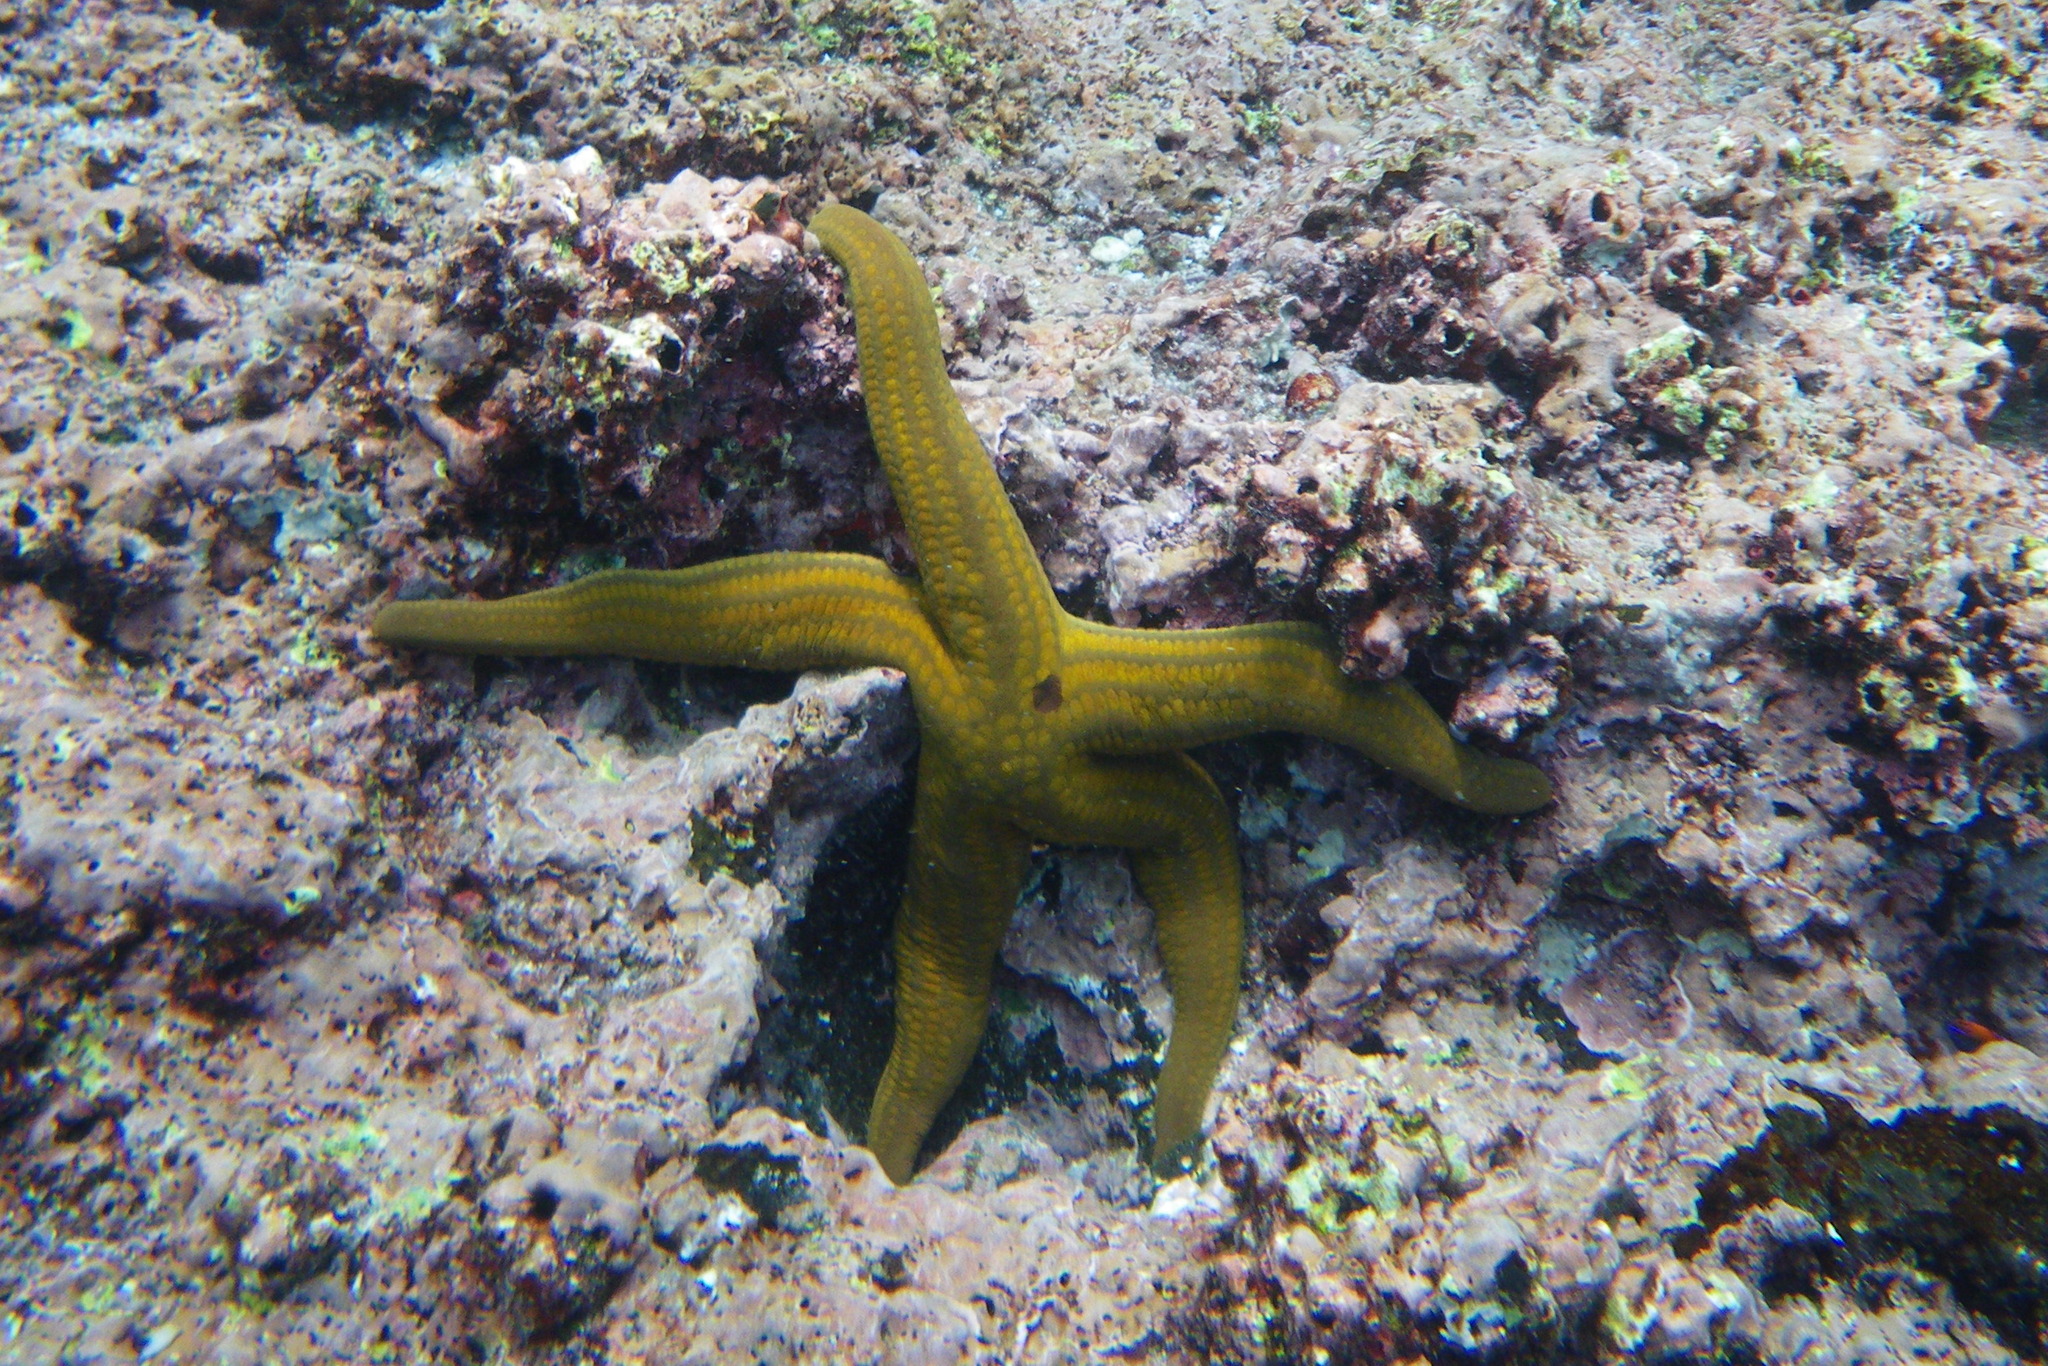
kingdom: Animalia
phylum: Echinodermata
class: Asteroidea
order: Valvatida
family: Ophidiasteridae
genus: Pharia
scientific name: Pharia pyramidata
